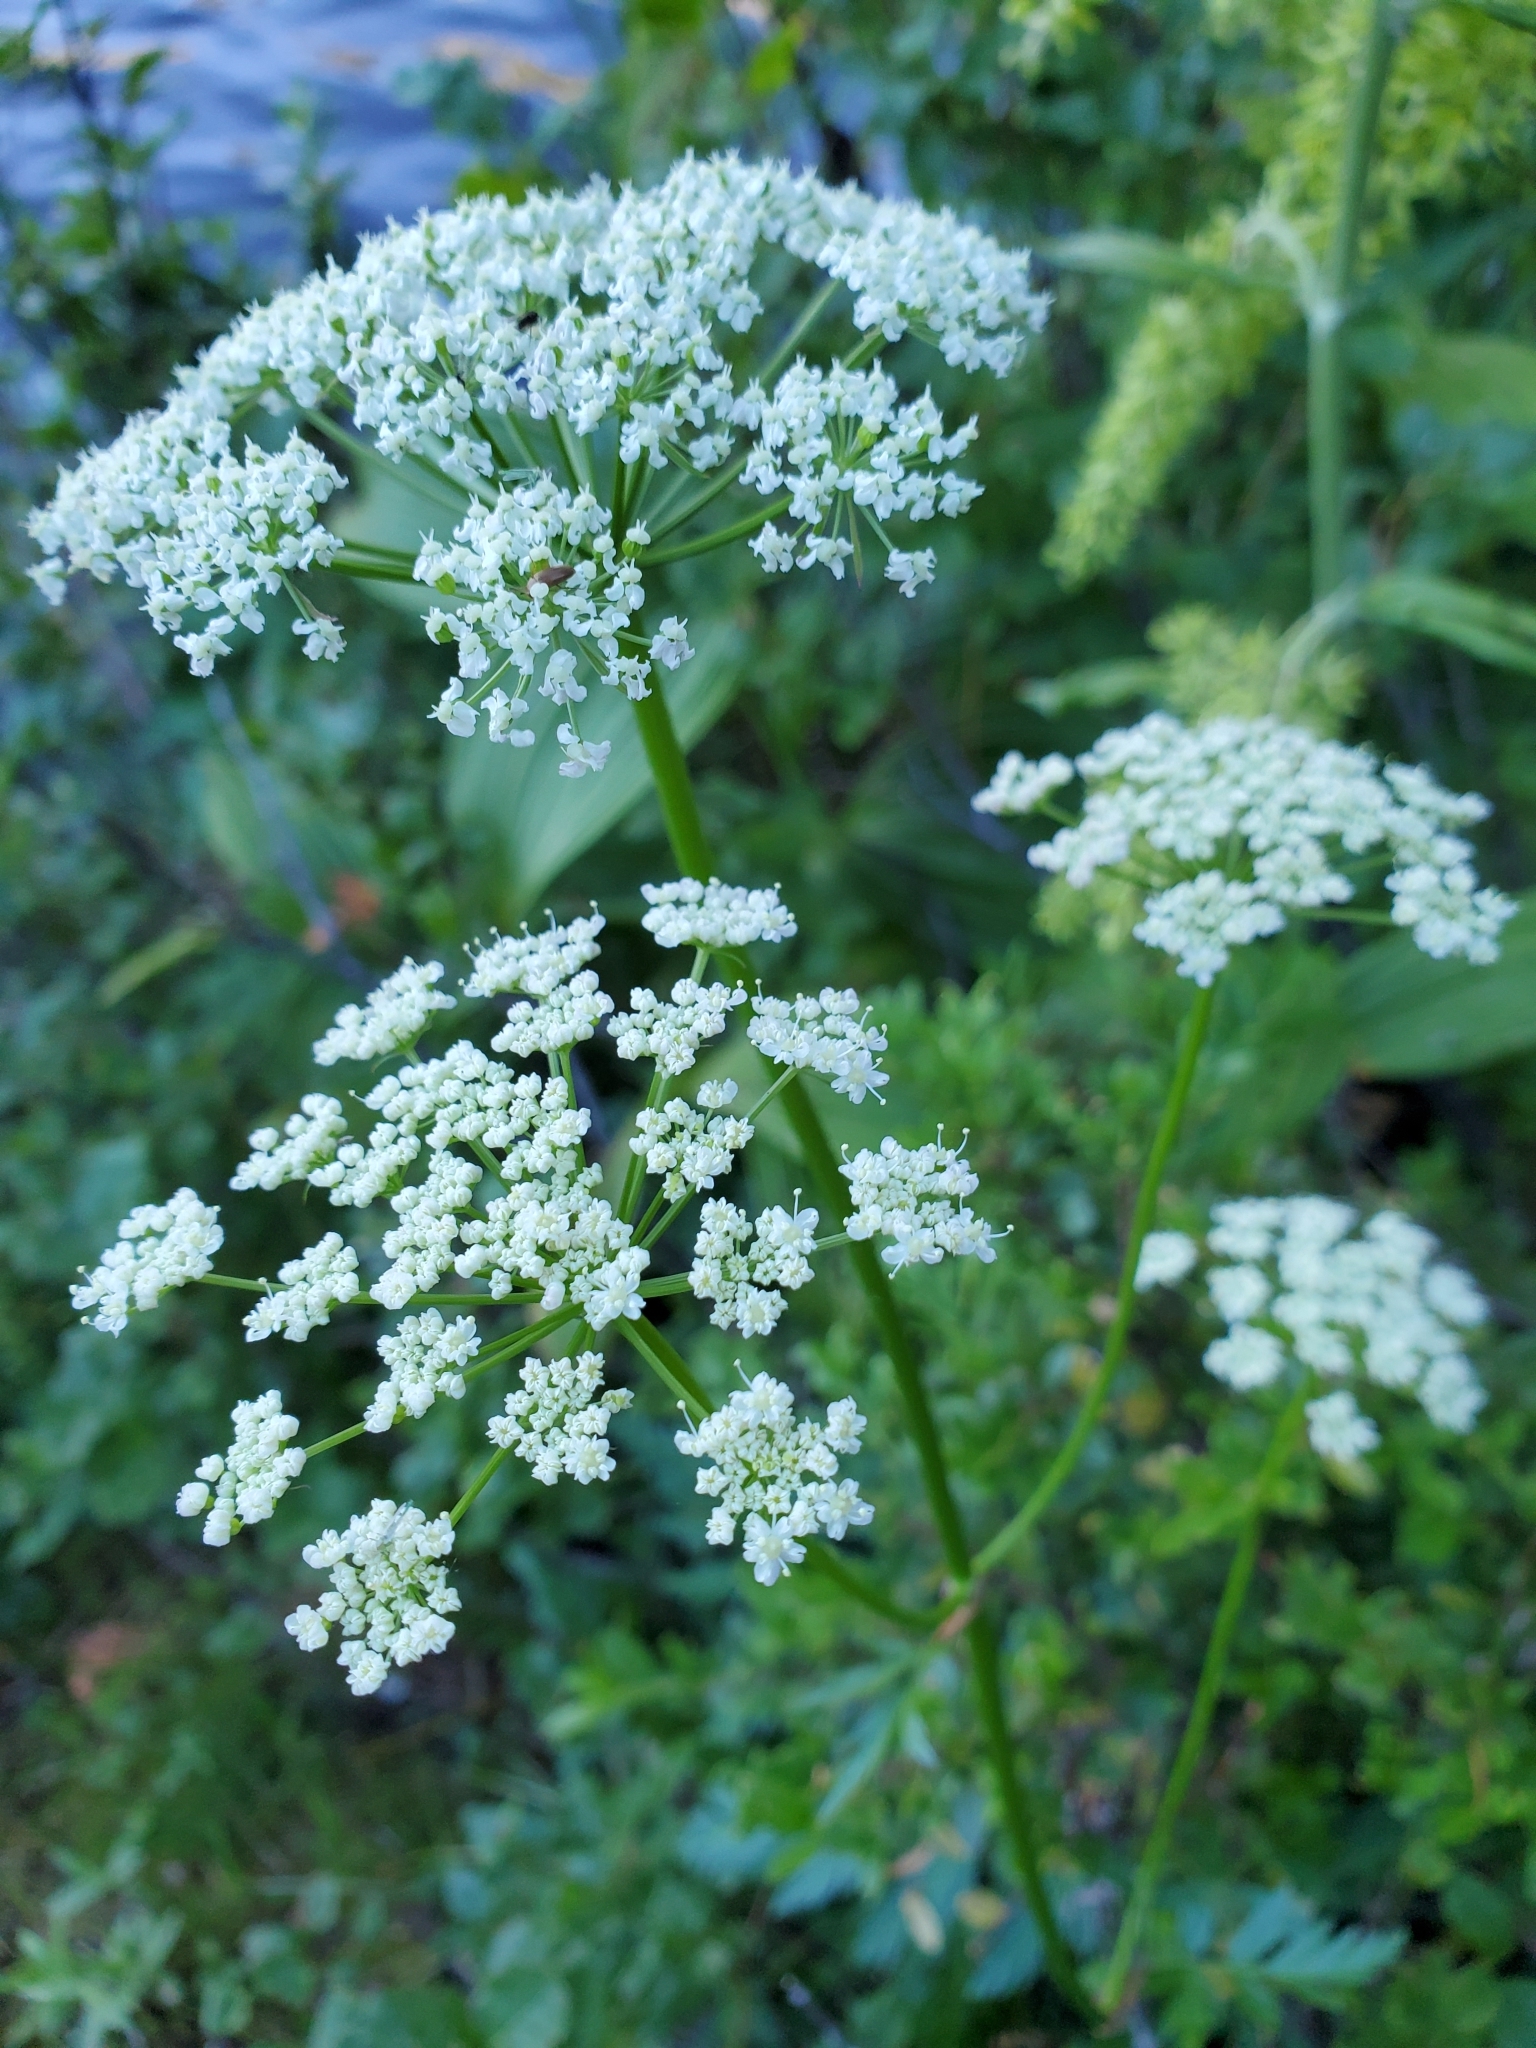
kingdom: Plantae
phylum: Tracheophyta
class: Magnoliopsida
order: Apiales
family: Apiaceae
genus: Ligusticum
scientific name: Ligusticum canbyi
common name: Canby’s licorice-root
